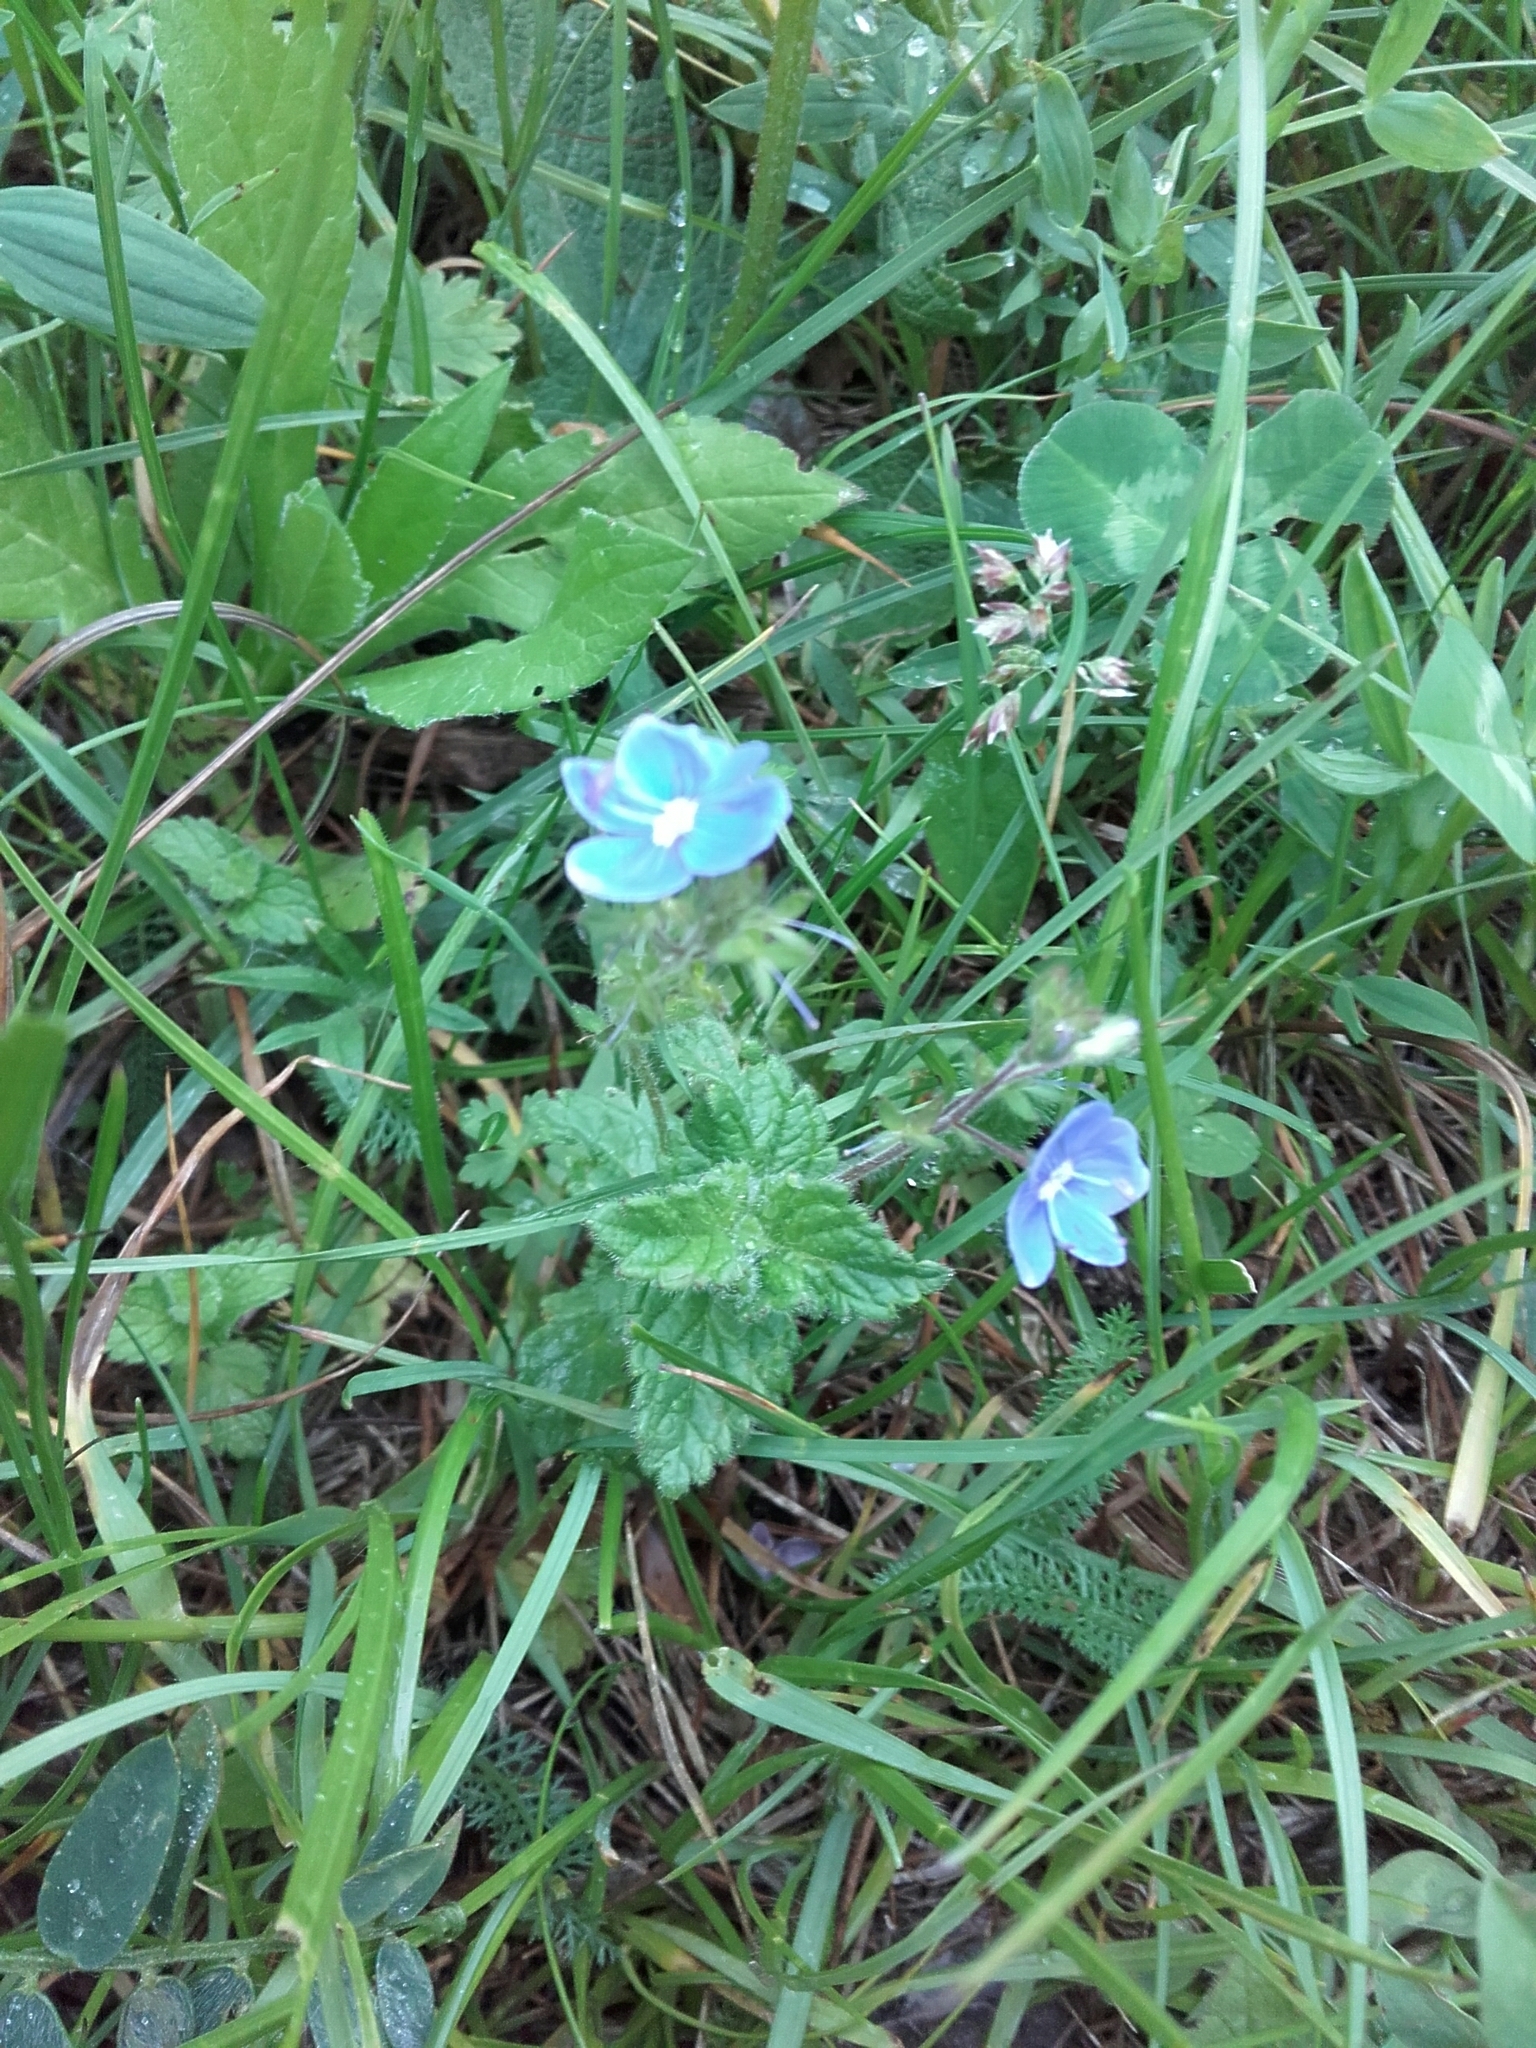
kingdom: Plantae
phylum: Tracheophyta
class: Magnoliopsida
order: Lamiales
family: Plantaginaceae
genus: Veronica
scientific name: Veronica chamaedrys
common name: Germander speedwell
